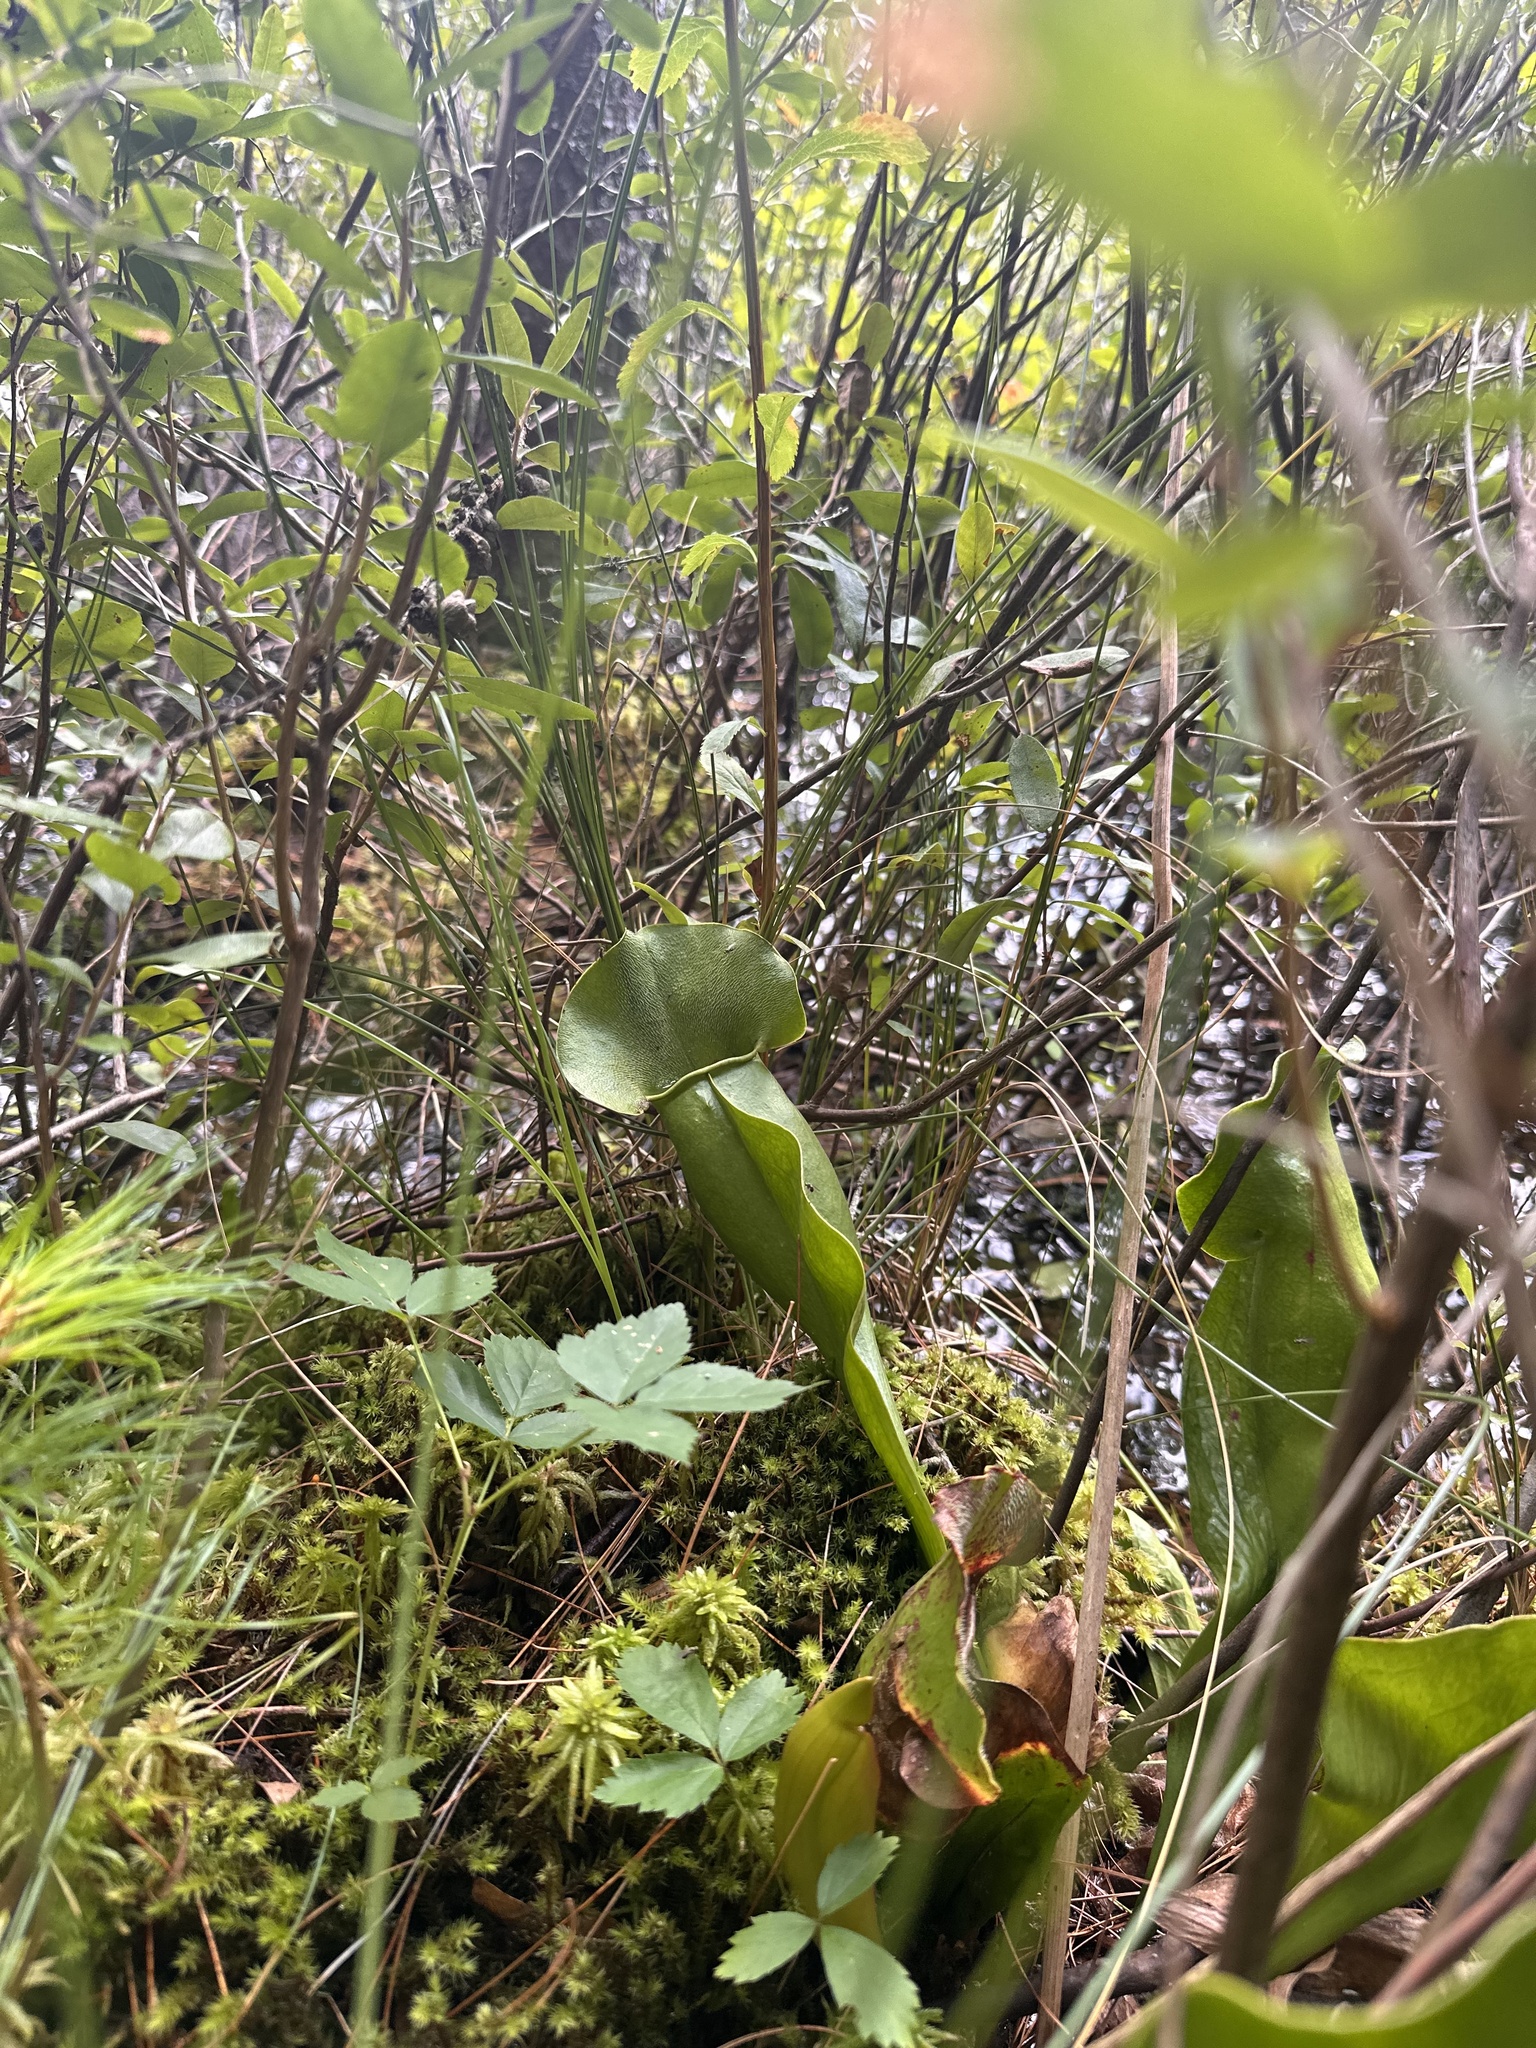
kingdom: Plantae
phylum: Tracheophyta
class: Magnoliopsida
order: Ericales
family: Sarraceniaceae
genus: Sarracenia
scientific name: Sarracenia purpurea
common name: Pitcherplant
